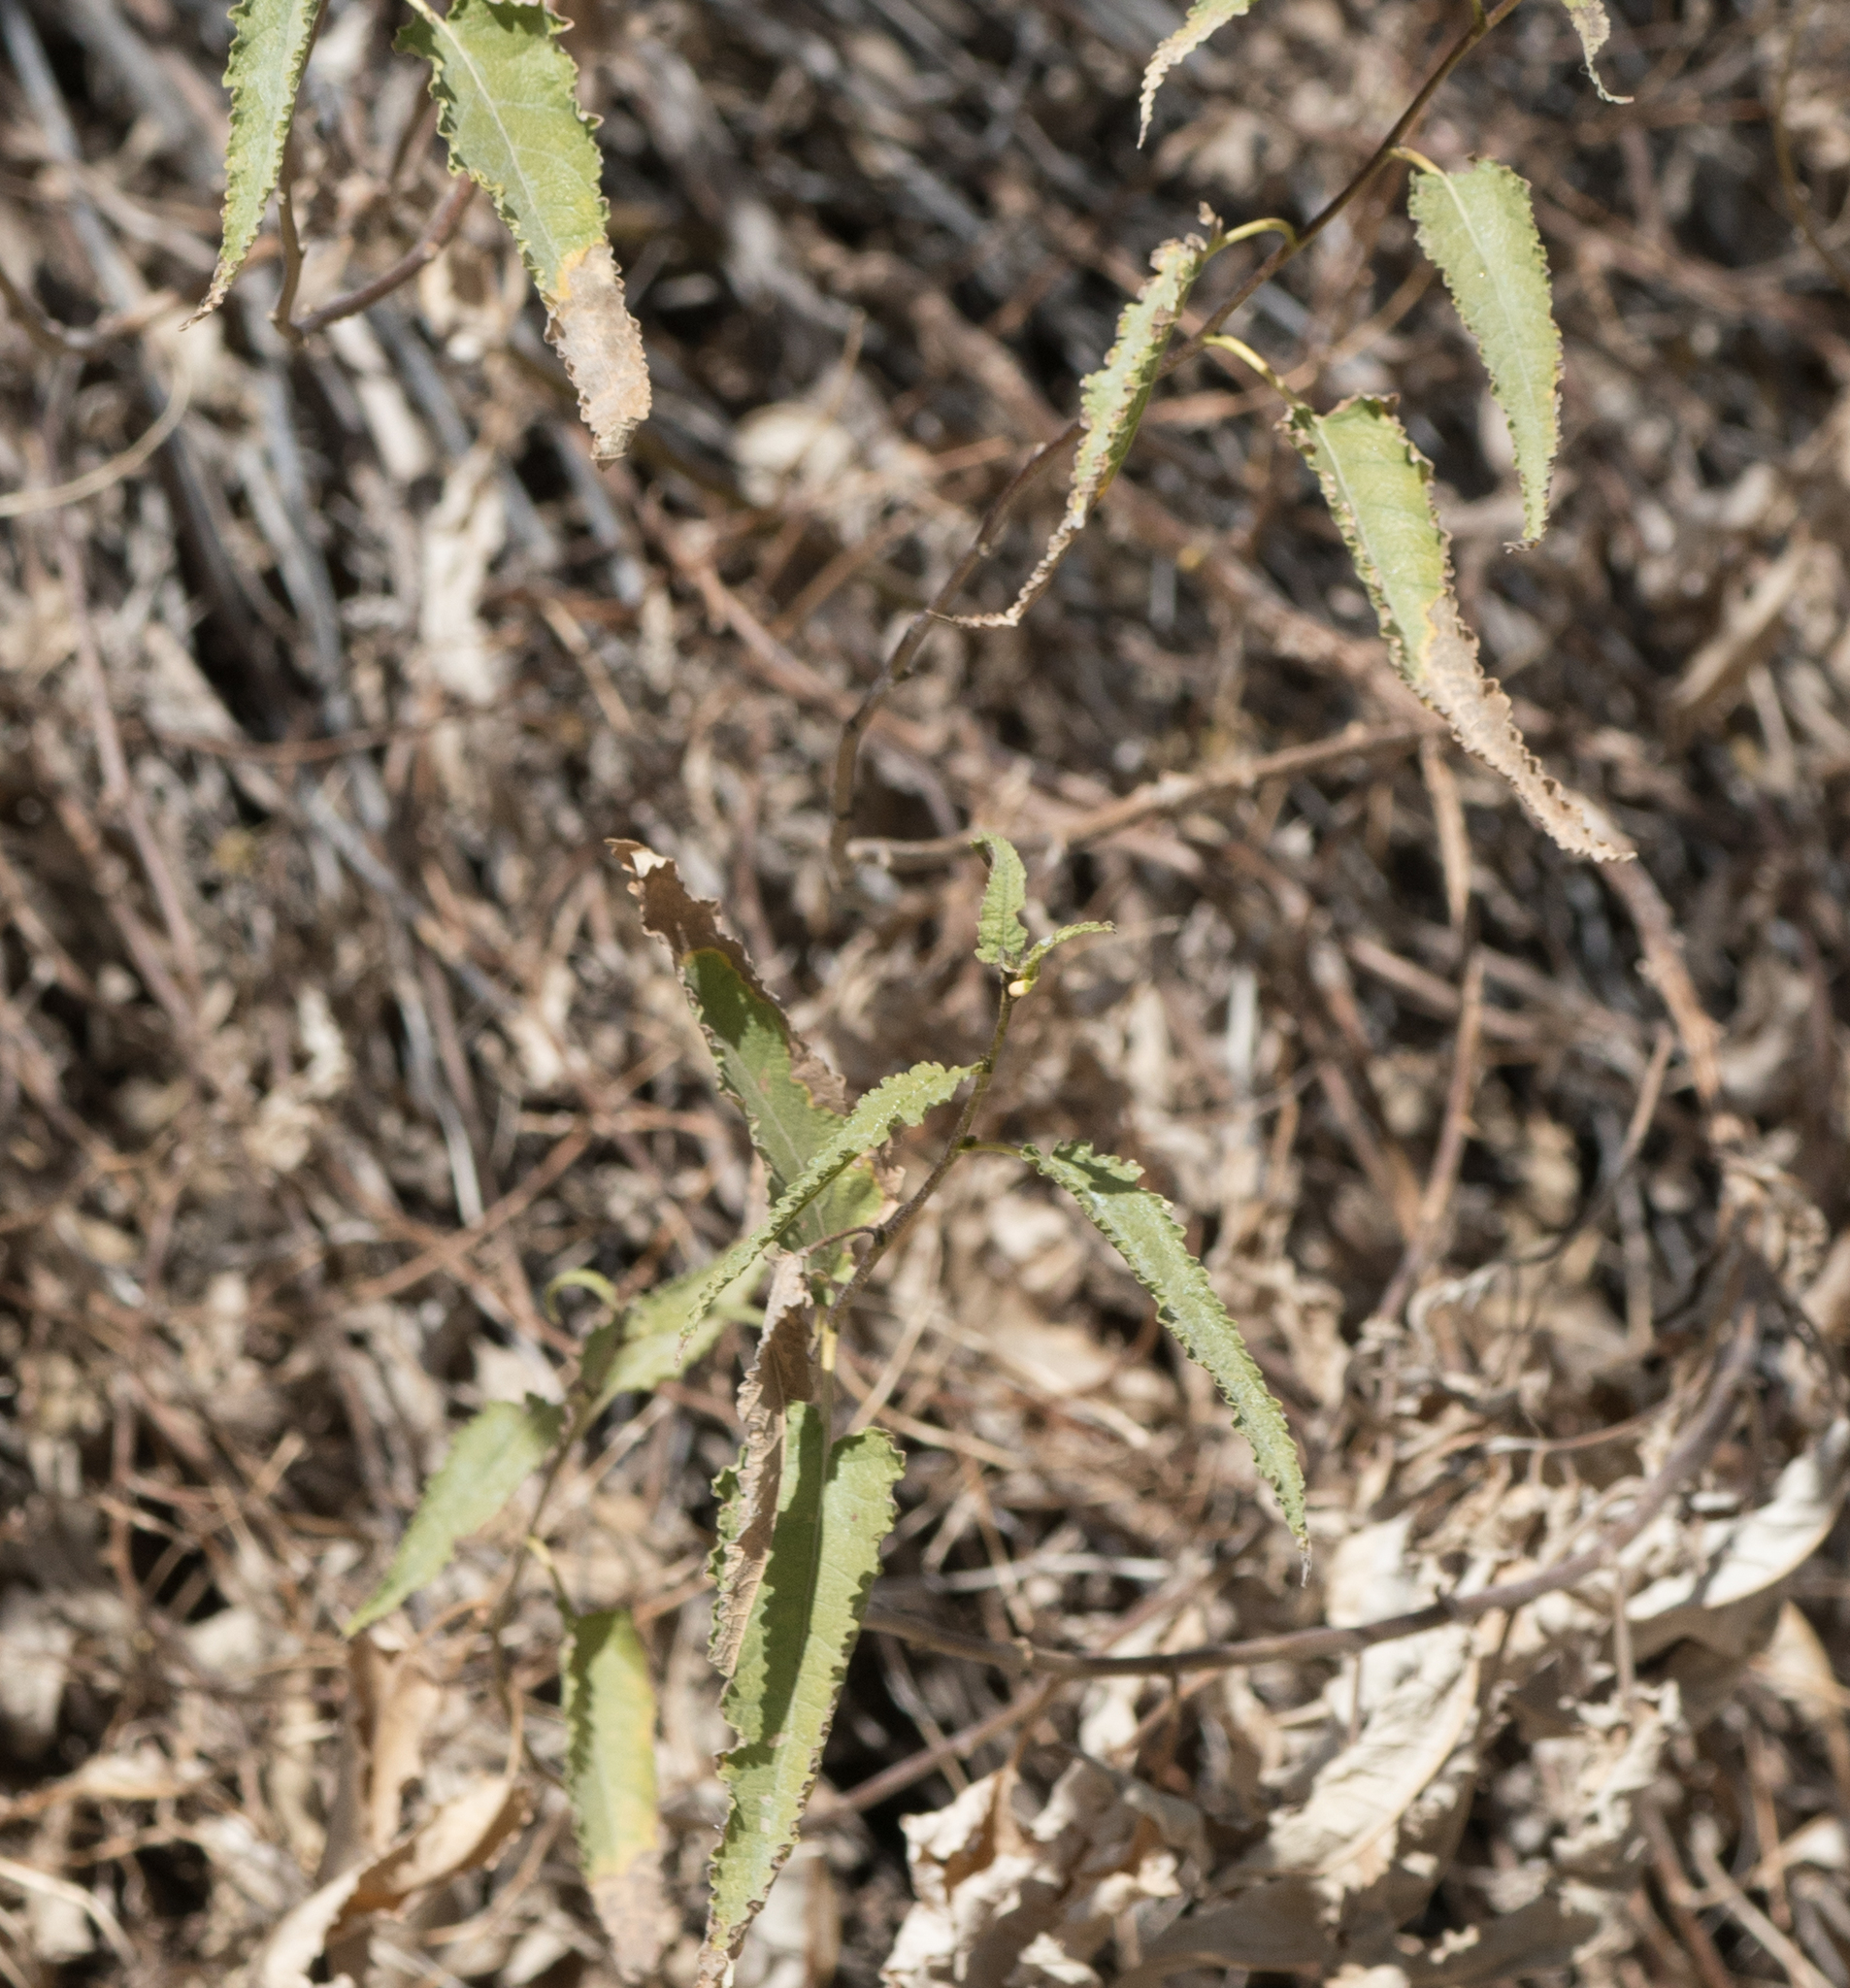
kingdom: Plantae
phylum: Tracheophyta
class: Magnoliopsida
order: Asterales
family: Asteraceae
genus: Ambrosia
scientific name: Ambrosia ambrosioides
